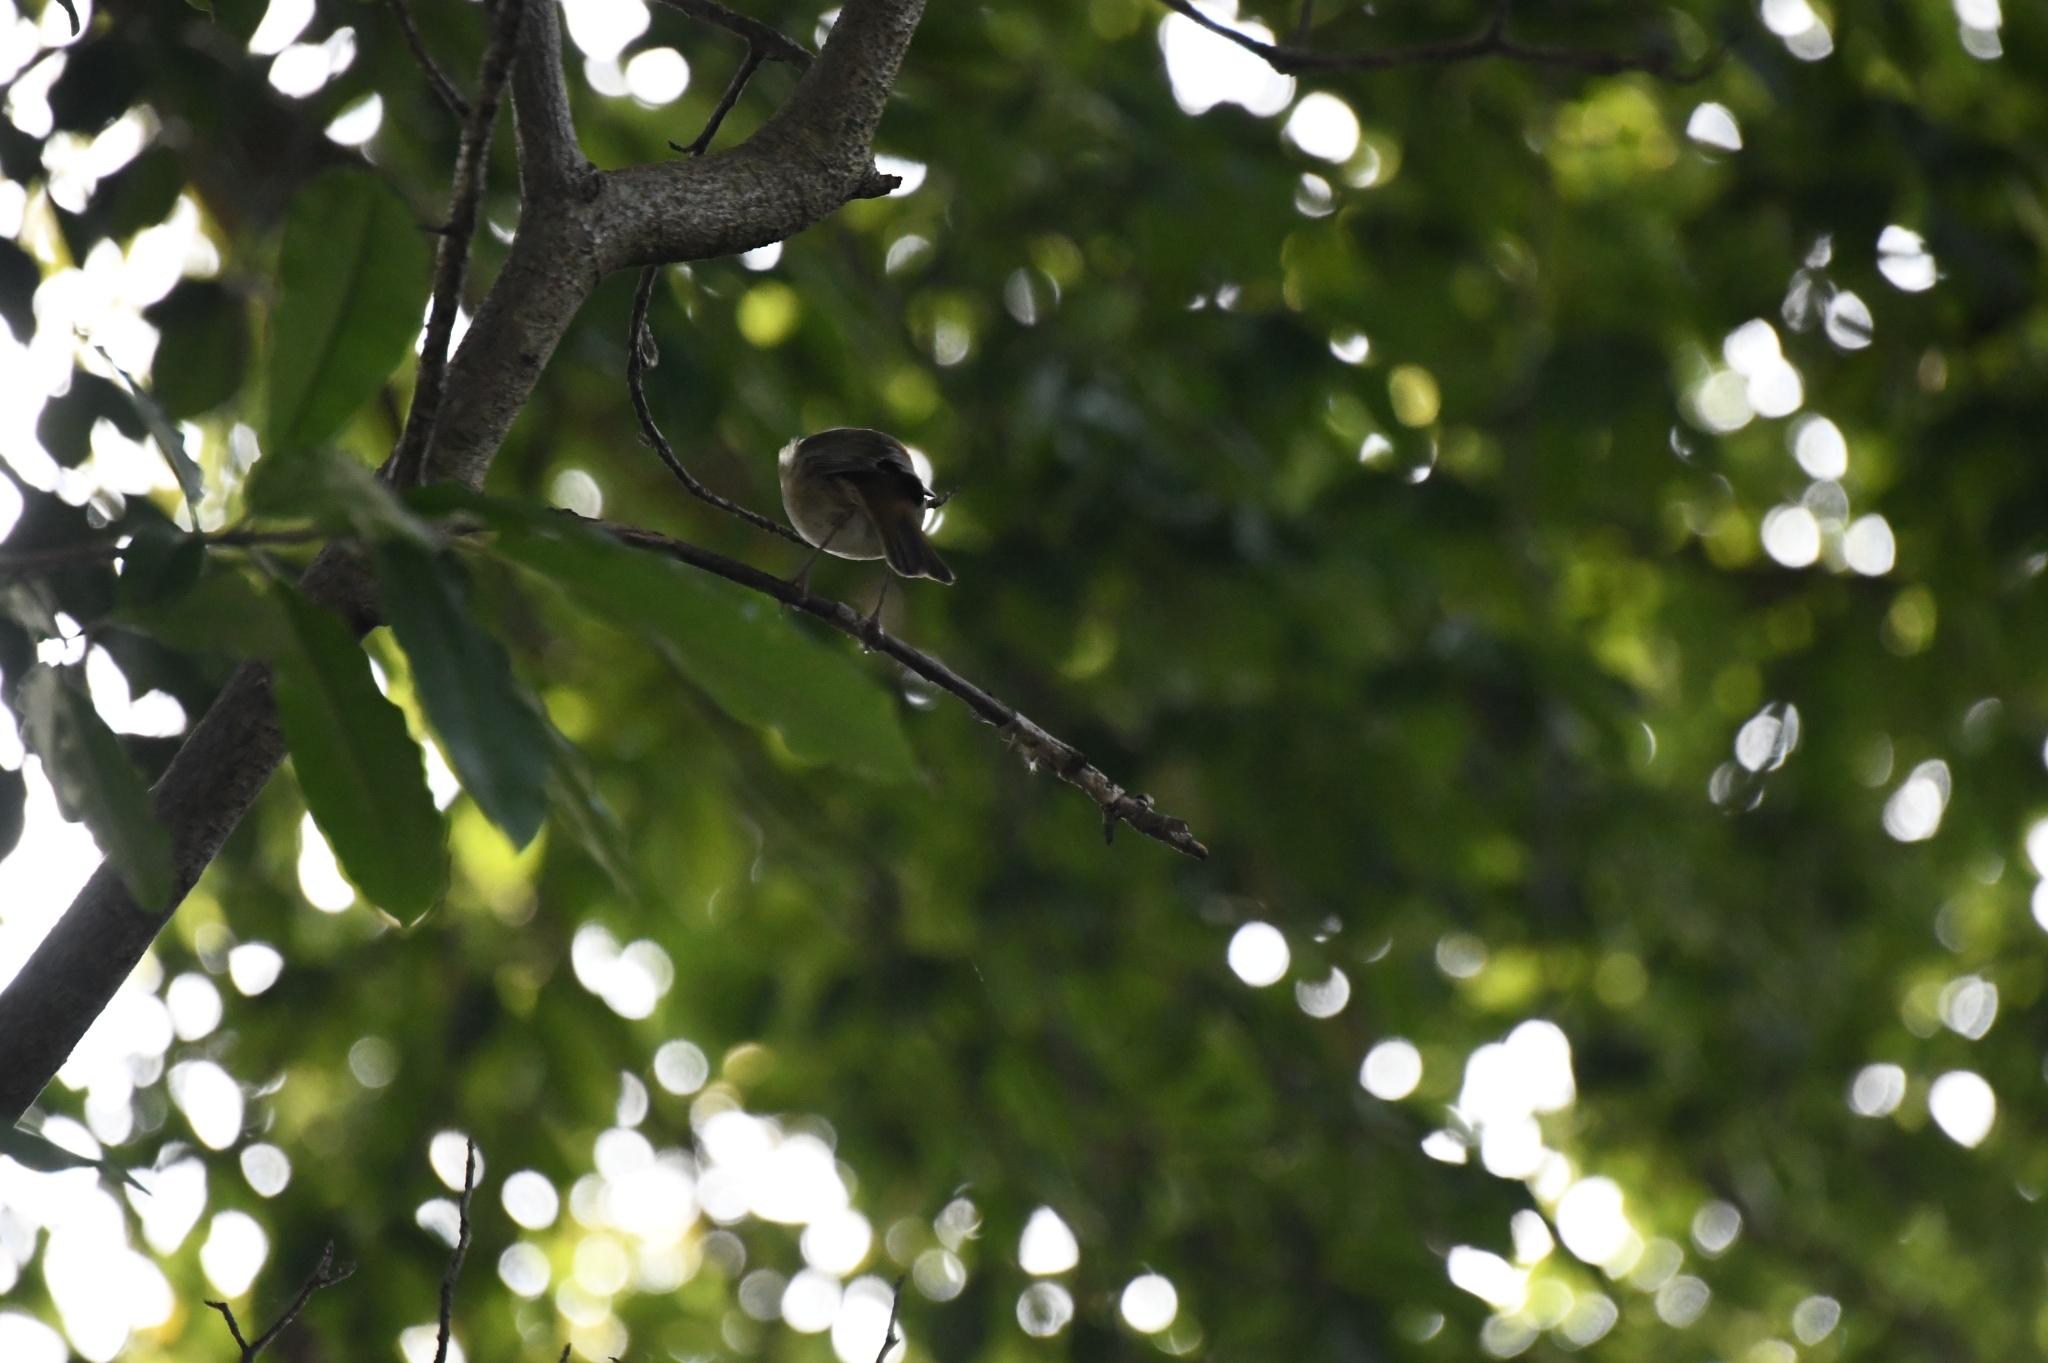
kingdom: Animalia
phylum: Chordata
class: Aves
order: Passeriformes
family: Muscicapidae
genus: Erithacus
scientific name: Erithacus rubecula
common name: European robin
